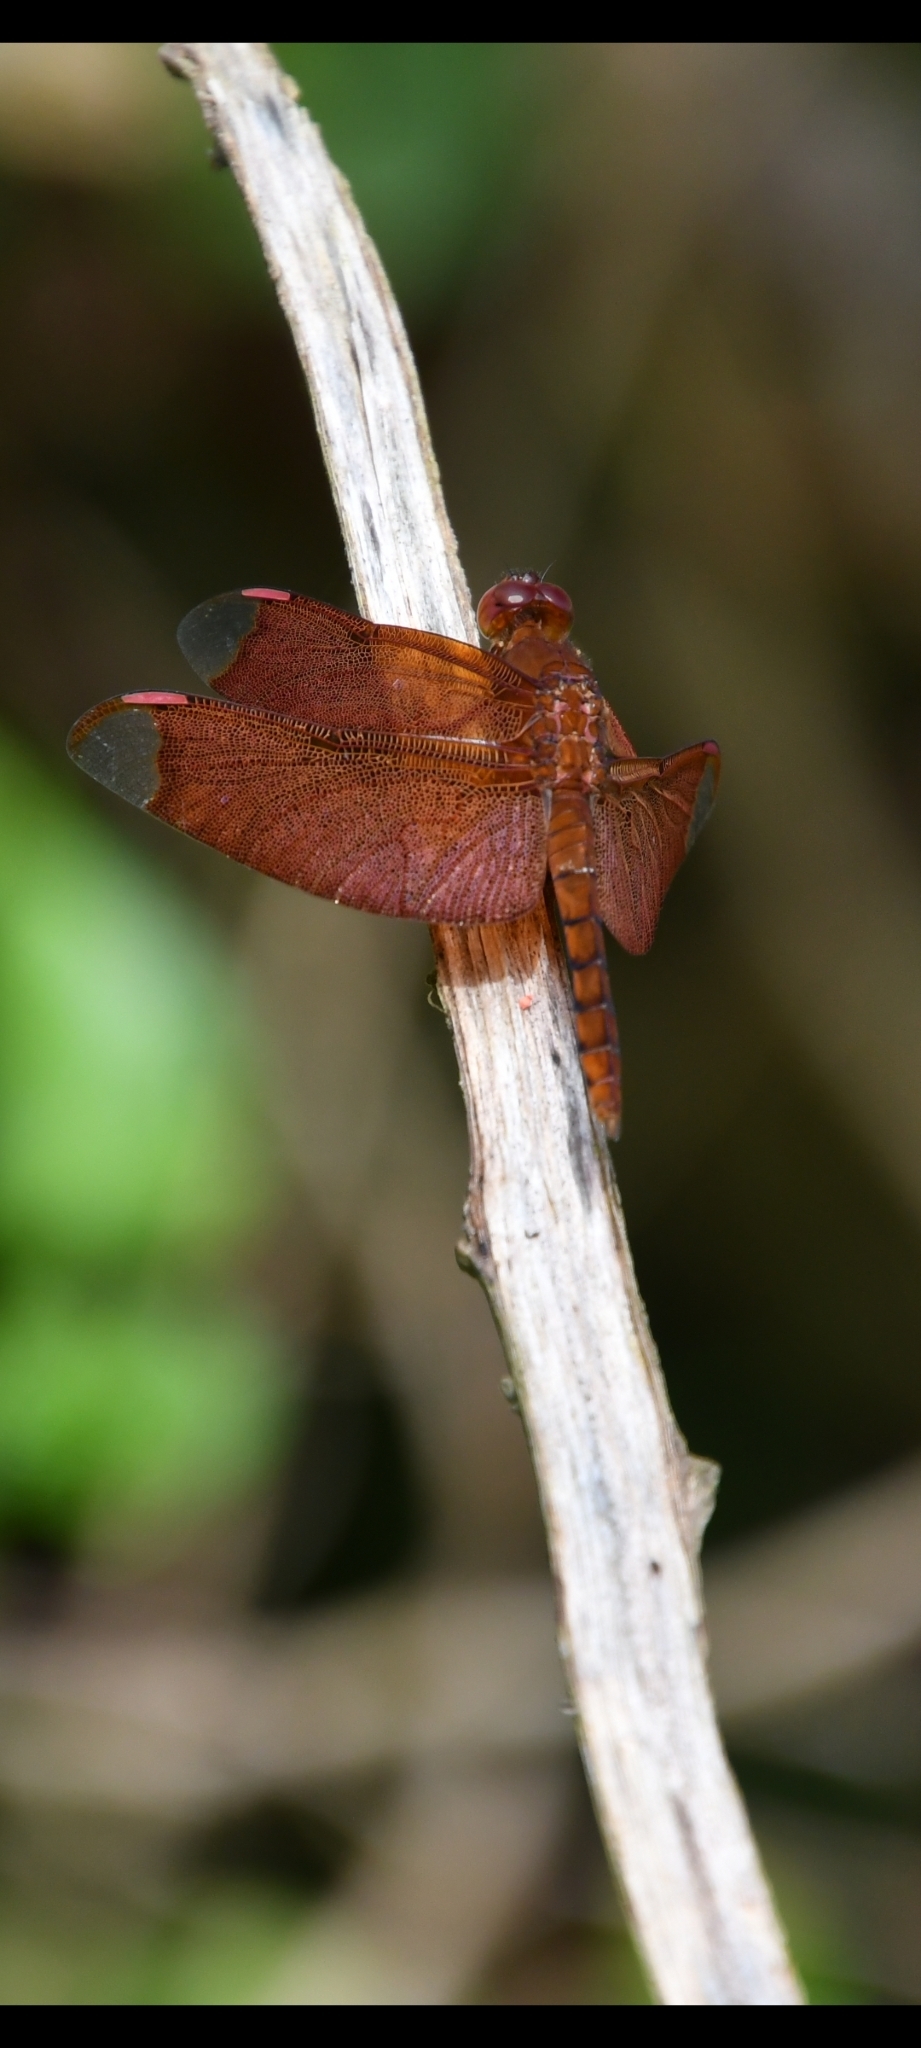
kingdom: Animalia
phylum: Arthropoda
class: Insecta
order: Odonata
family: Libellulidae
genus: Neurothemis
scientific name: Neurothemis fulvia
